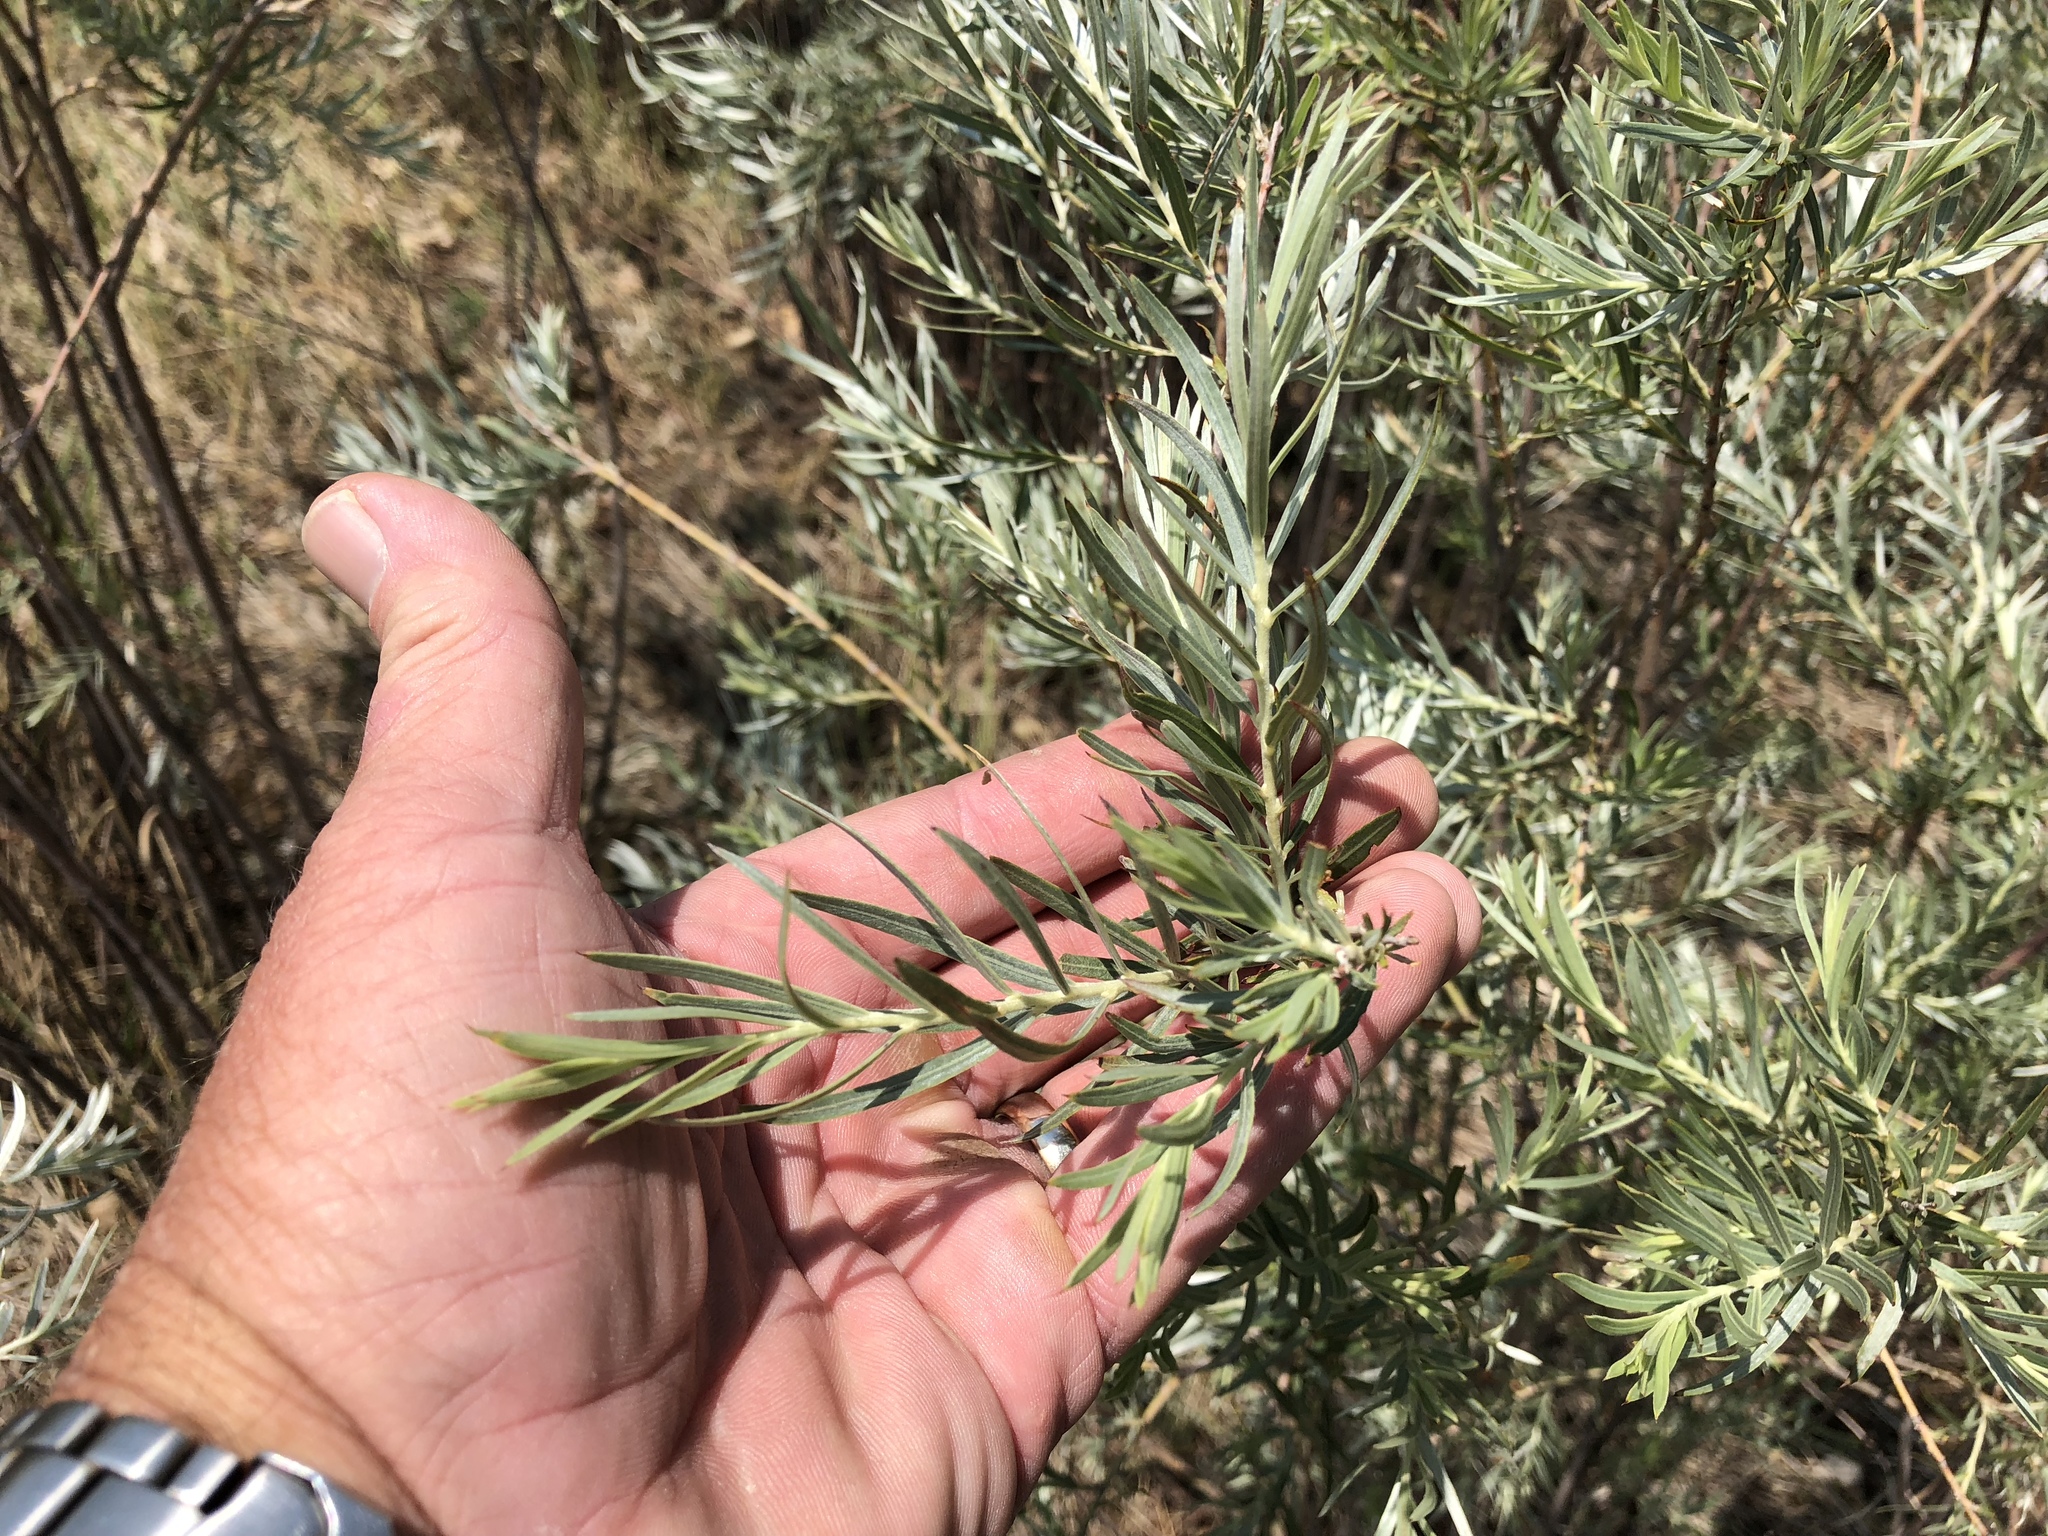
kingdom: Plantae
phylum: Tracheophyta
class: Magnoliopsida
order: Malpighiales
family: Salicaceae
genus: Salix
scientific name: Salix exigua
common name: Coyote willow
